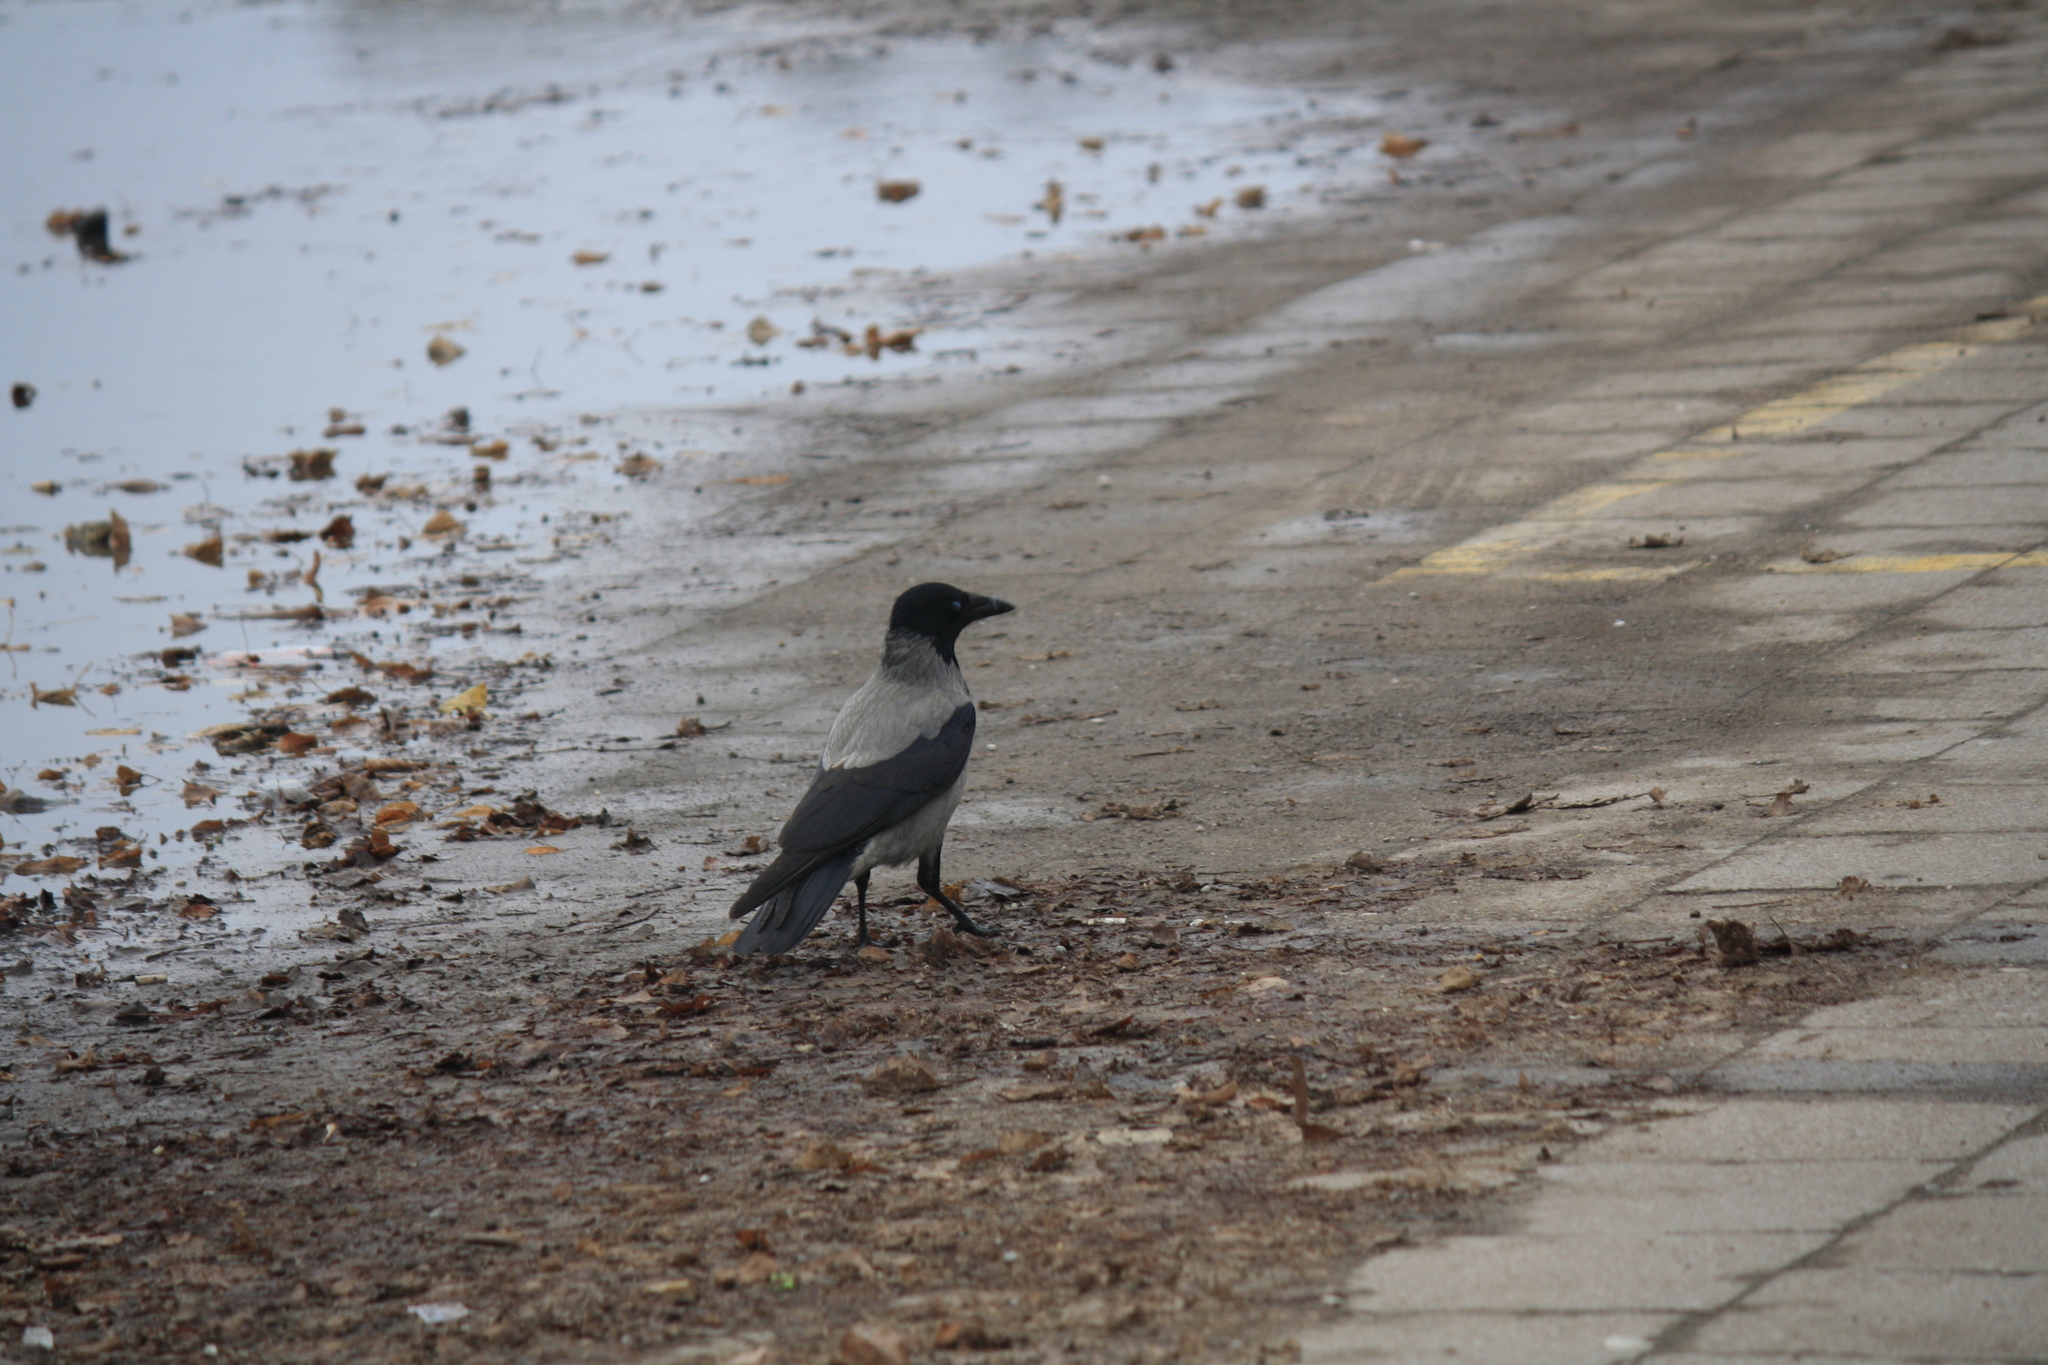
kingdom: Animalia
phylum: Chordata
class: Aves
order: Passeriformes
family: Corvidae
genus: Corvus
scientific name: Corvus cornix
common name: Hooded crow
